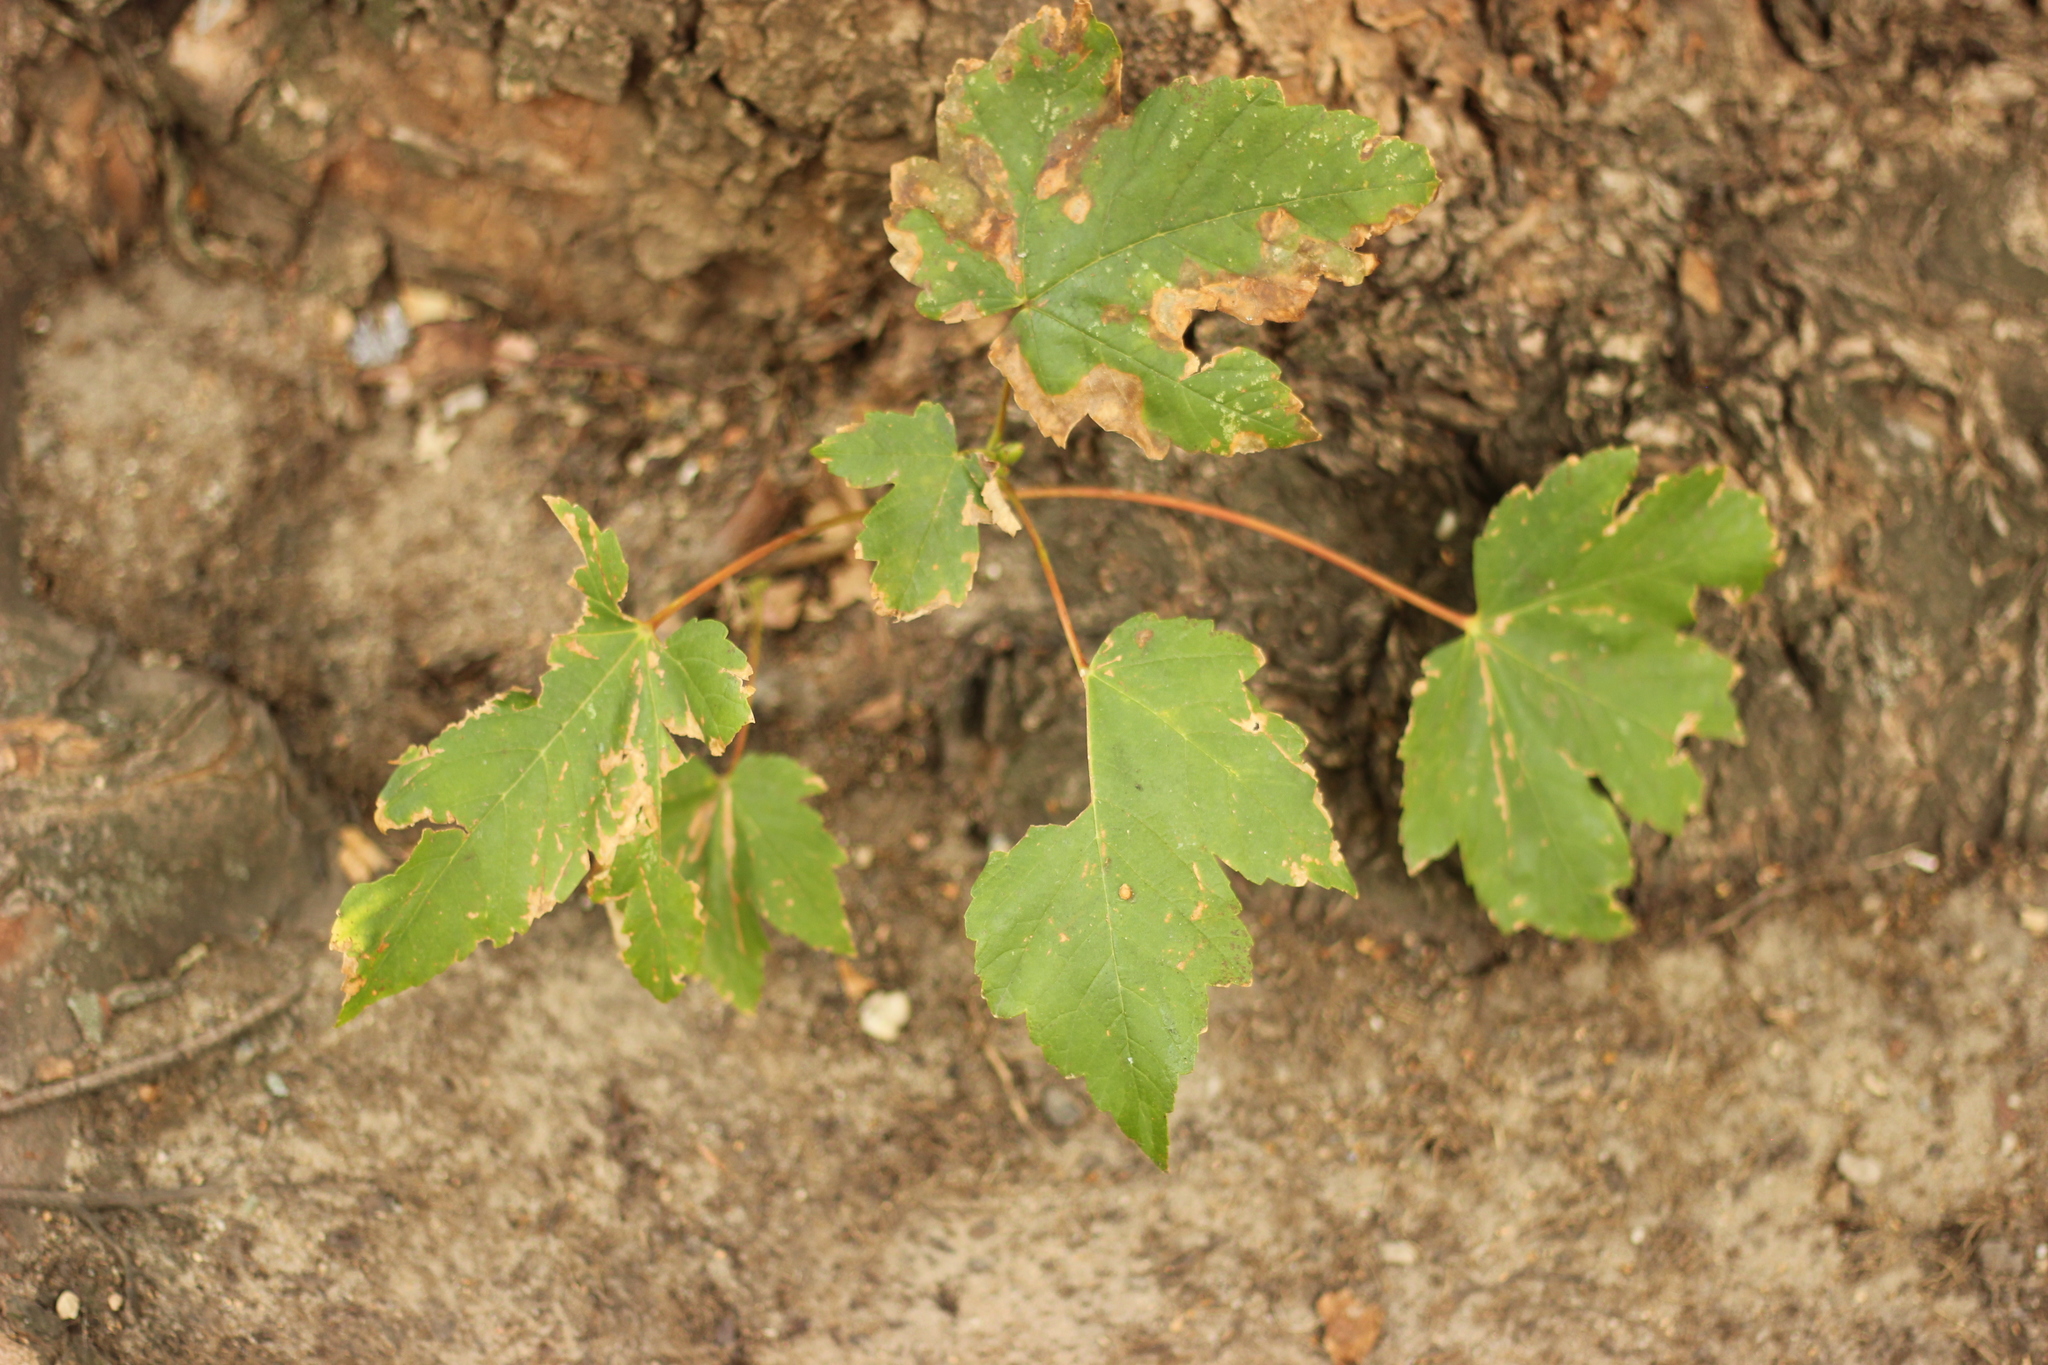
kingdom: Plantae
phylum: Tracheophyta
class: Magnoliopsida
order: Sapindales
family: Sapindaceae
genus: Acer
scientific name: Acer pseudoplatanus
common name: Sycamore
